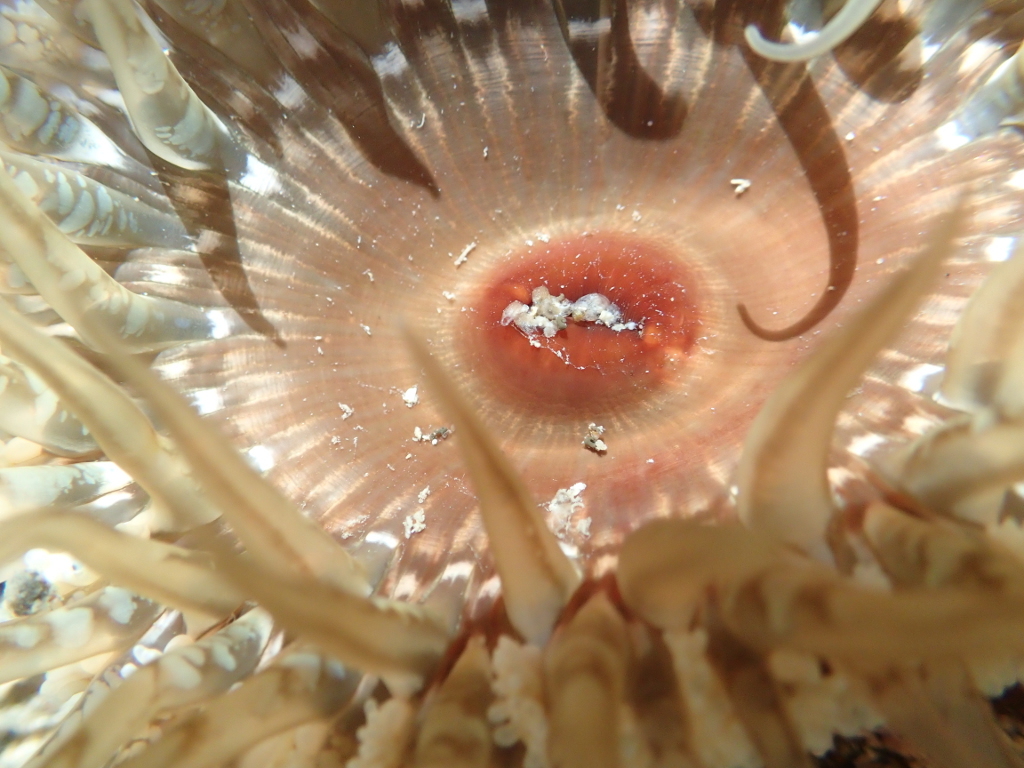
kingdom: Animalia
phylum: Cnidaria
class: Anthozoa
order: Actiniaria
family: Actiniidae
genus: Oulactis
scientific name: Oulactis muscosa
